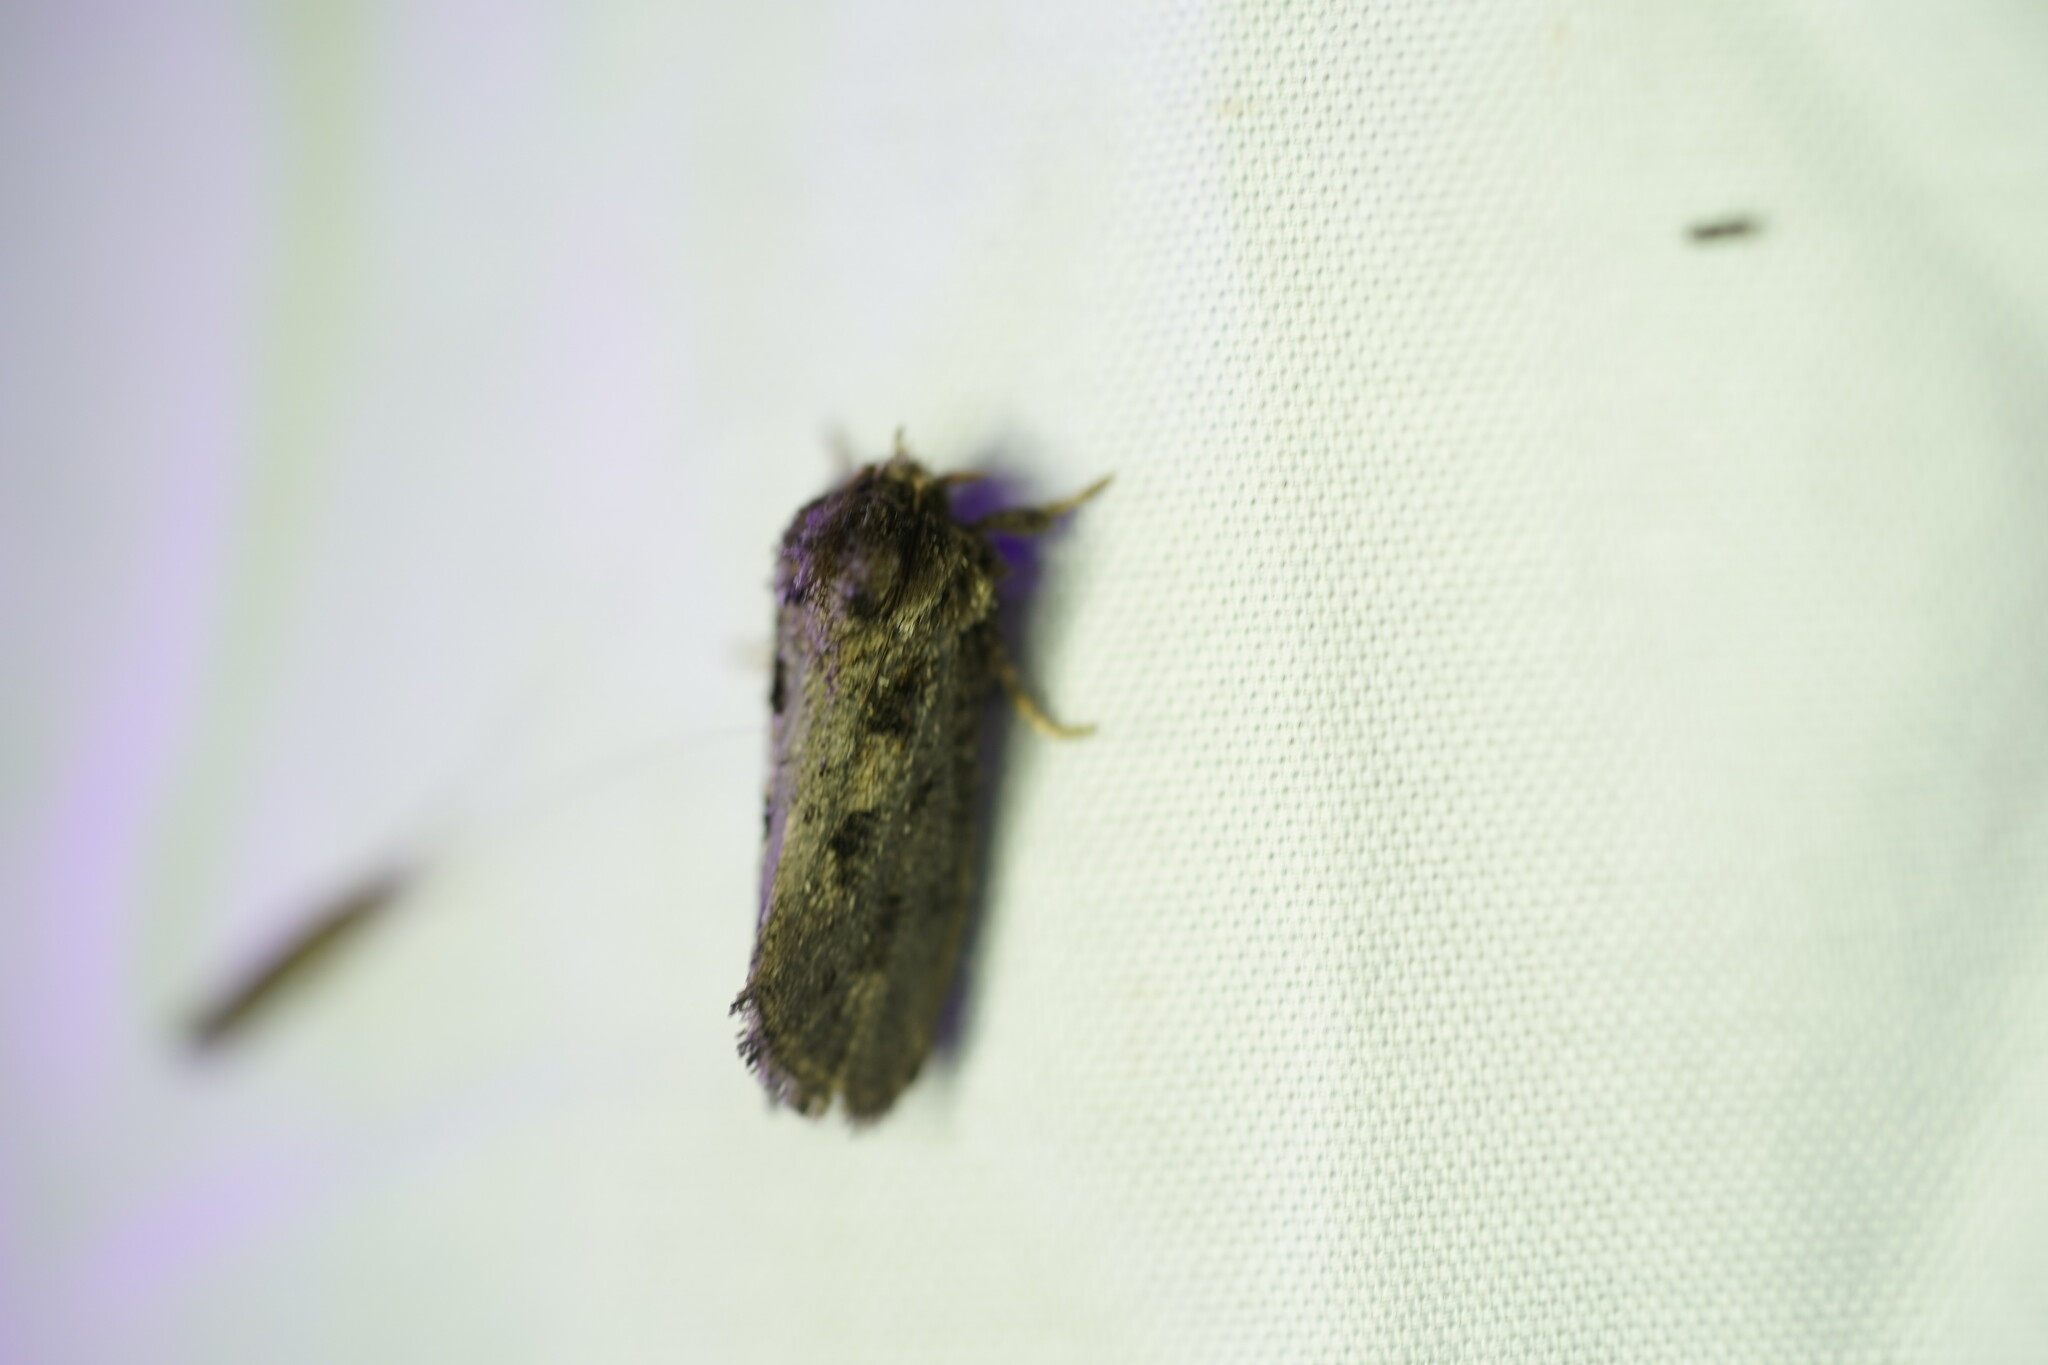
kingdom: Animalia
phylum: Arthropoda
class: Insecta
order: Lepidoptera
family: Tineidae
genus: Acrolophus
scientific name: Acrolophus arcanella
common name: Arcane grass tubeworm moth
